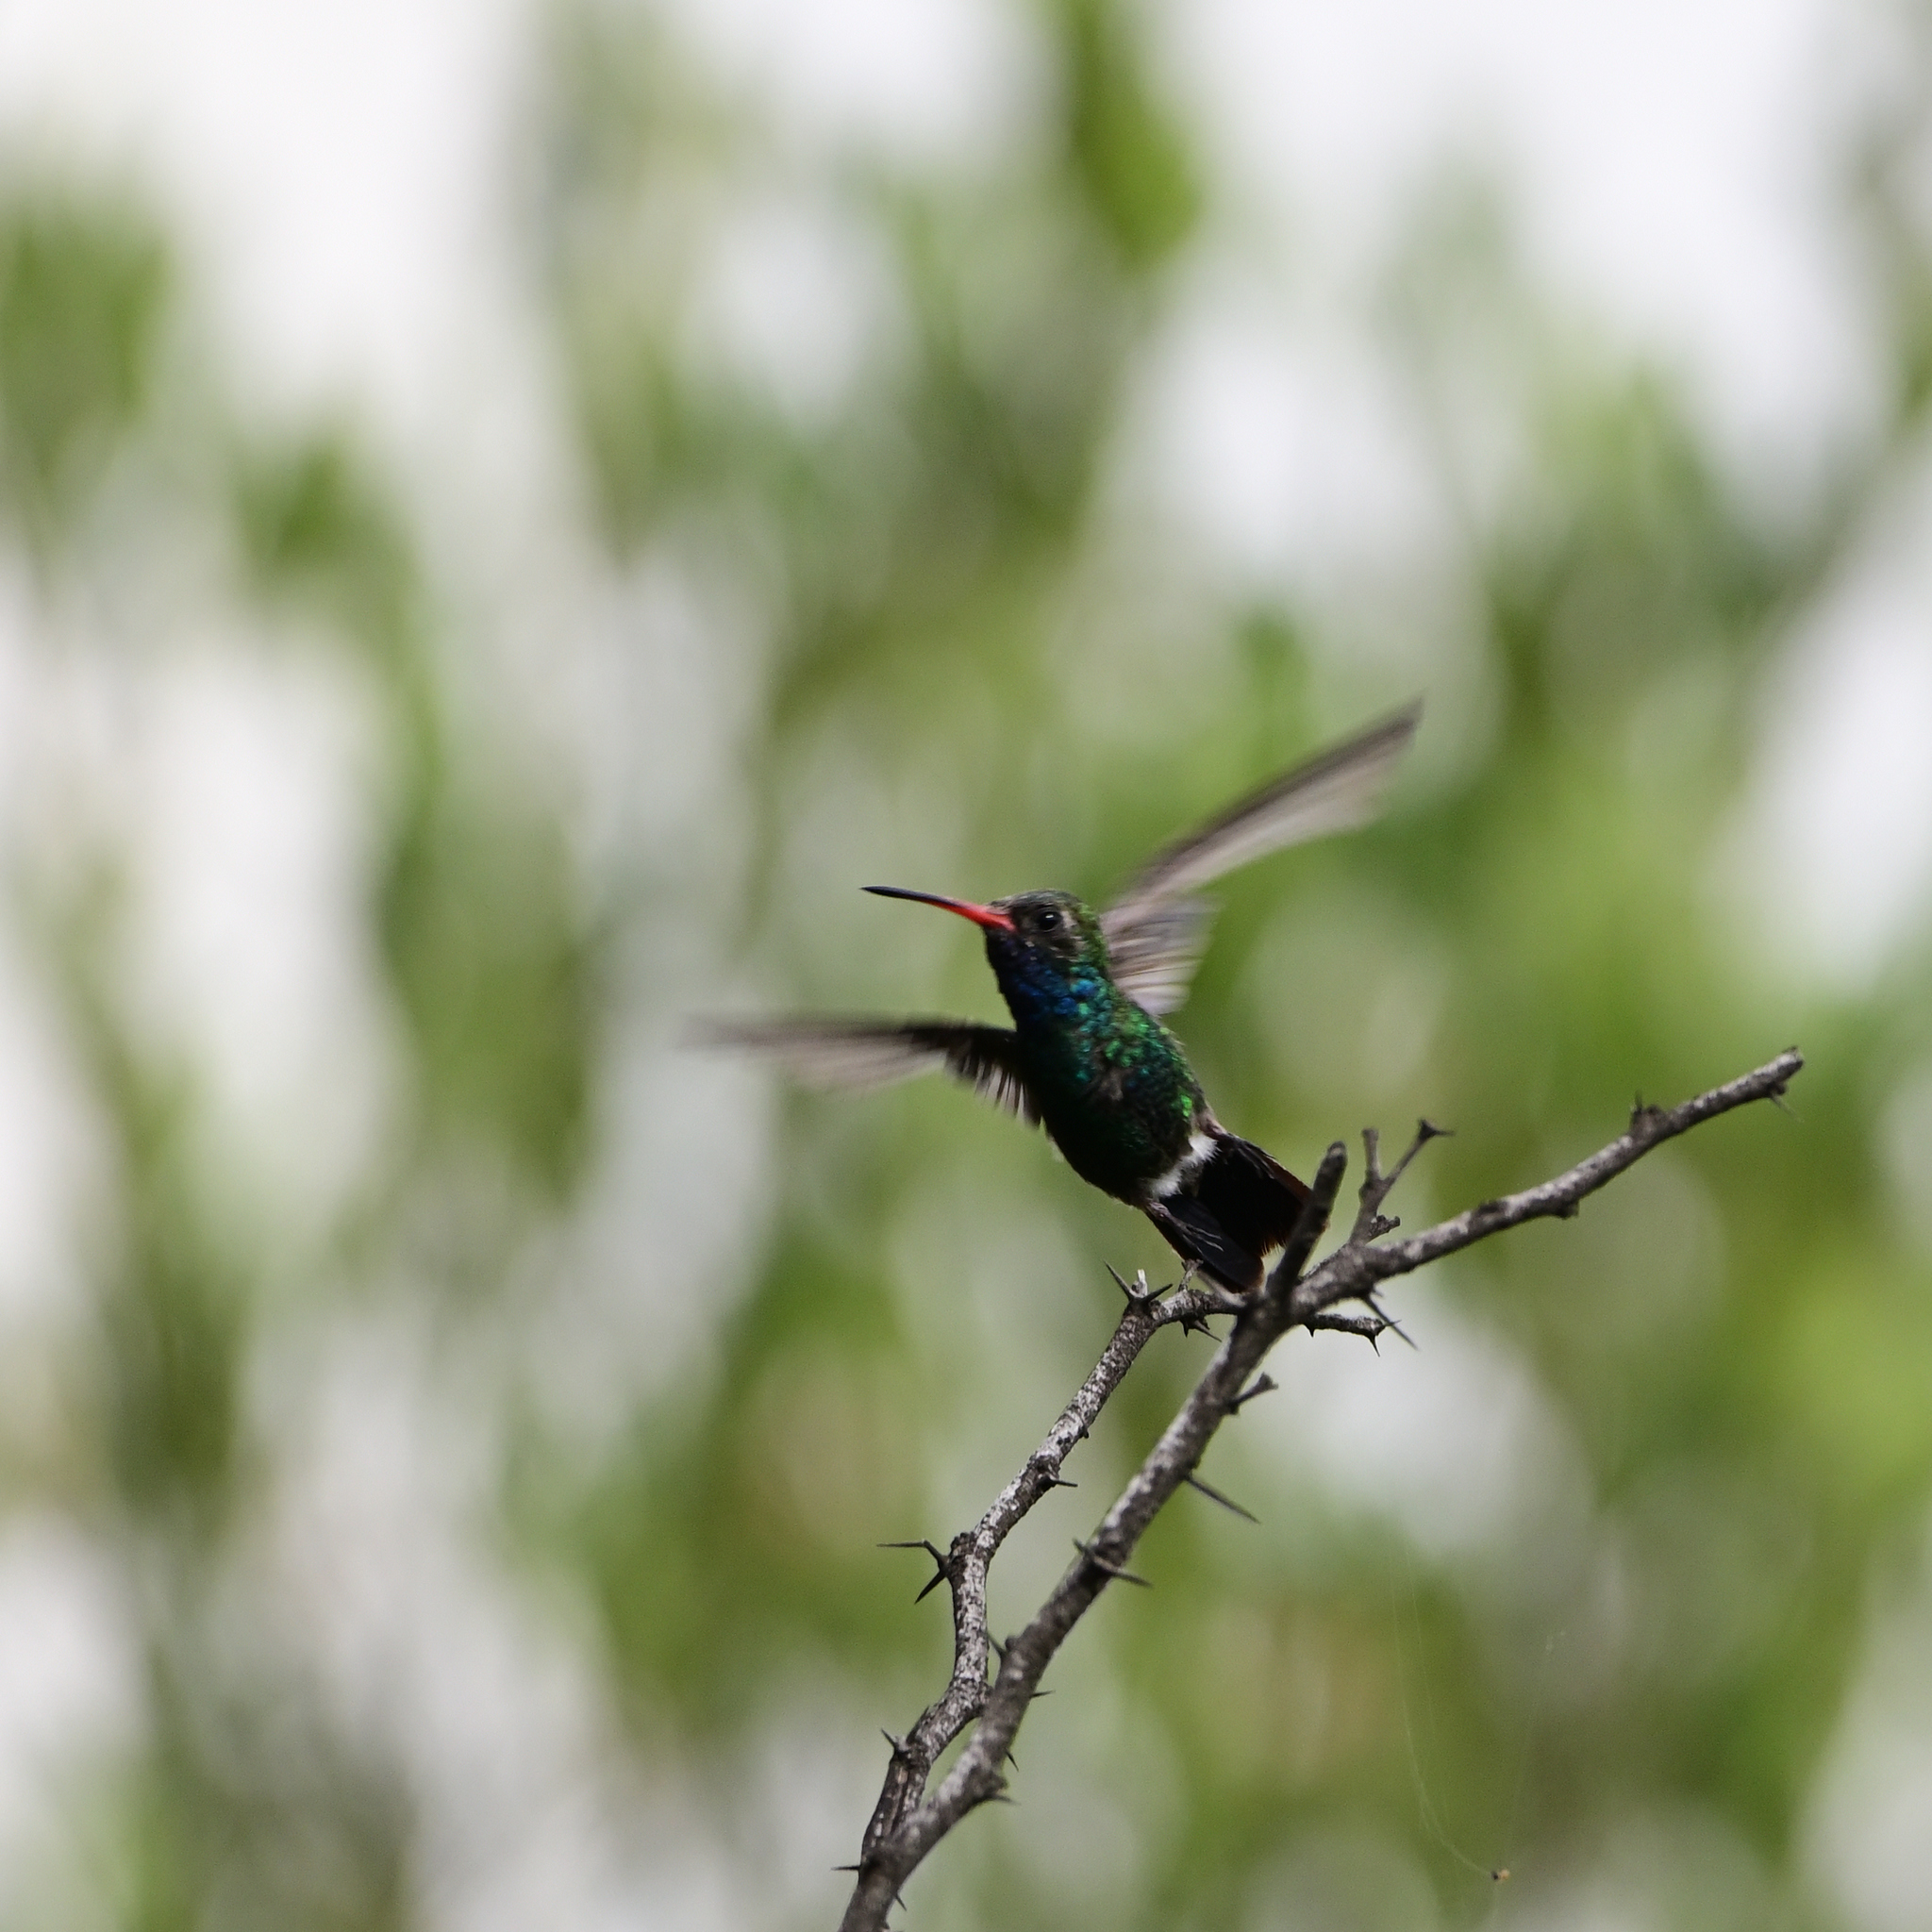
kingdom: Animalia
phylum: Chordata
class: Aves
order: Apodiformes
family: Trochilidae
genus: Cynanthus
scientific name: Cynanthus latirostris
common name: Broad-billed hummingbird
